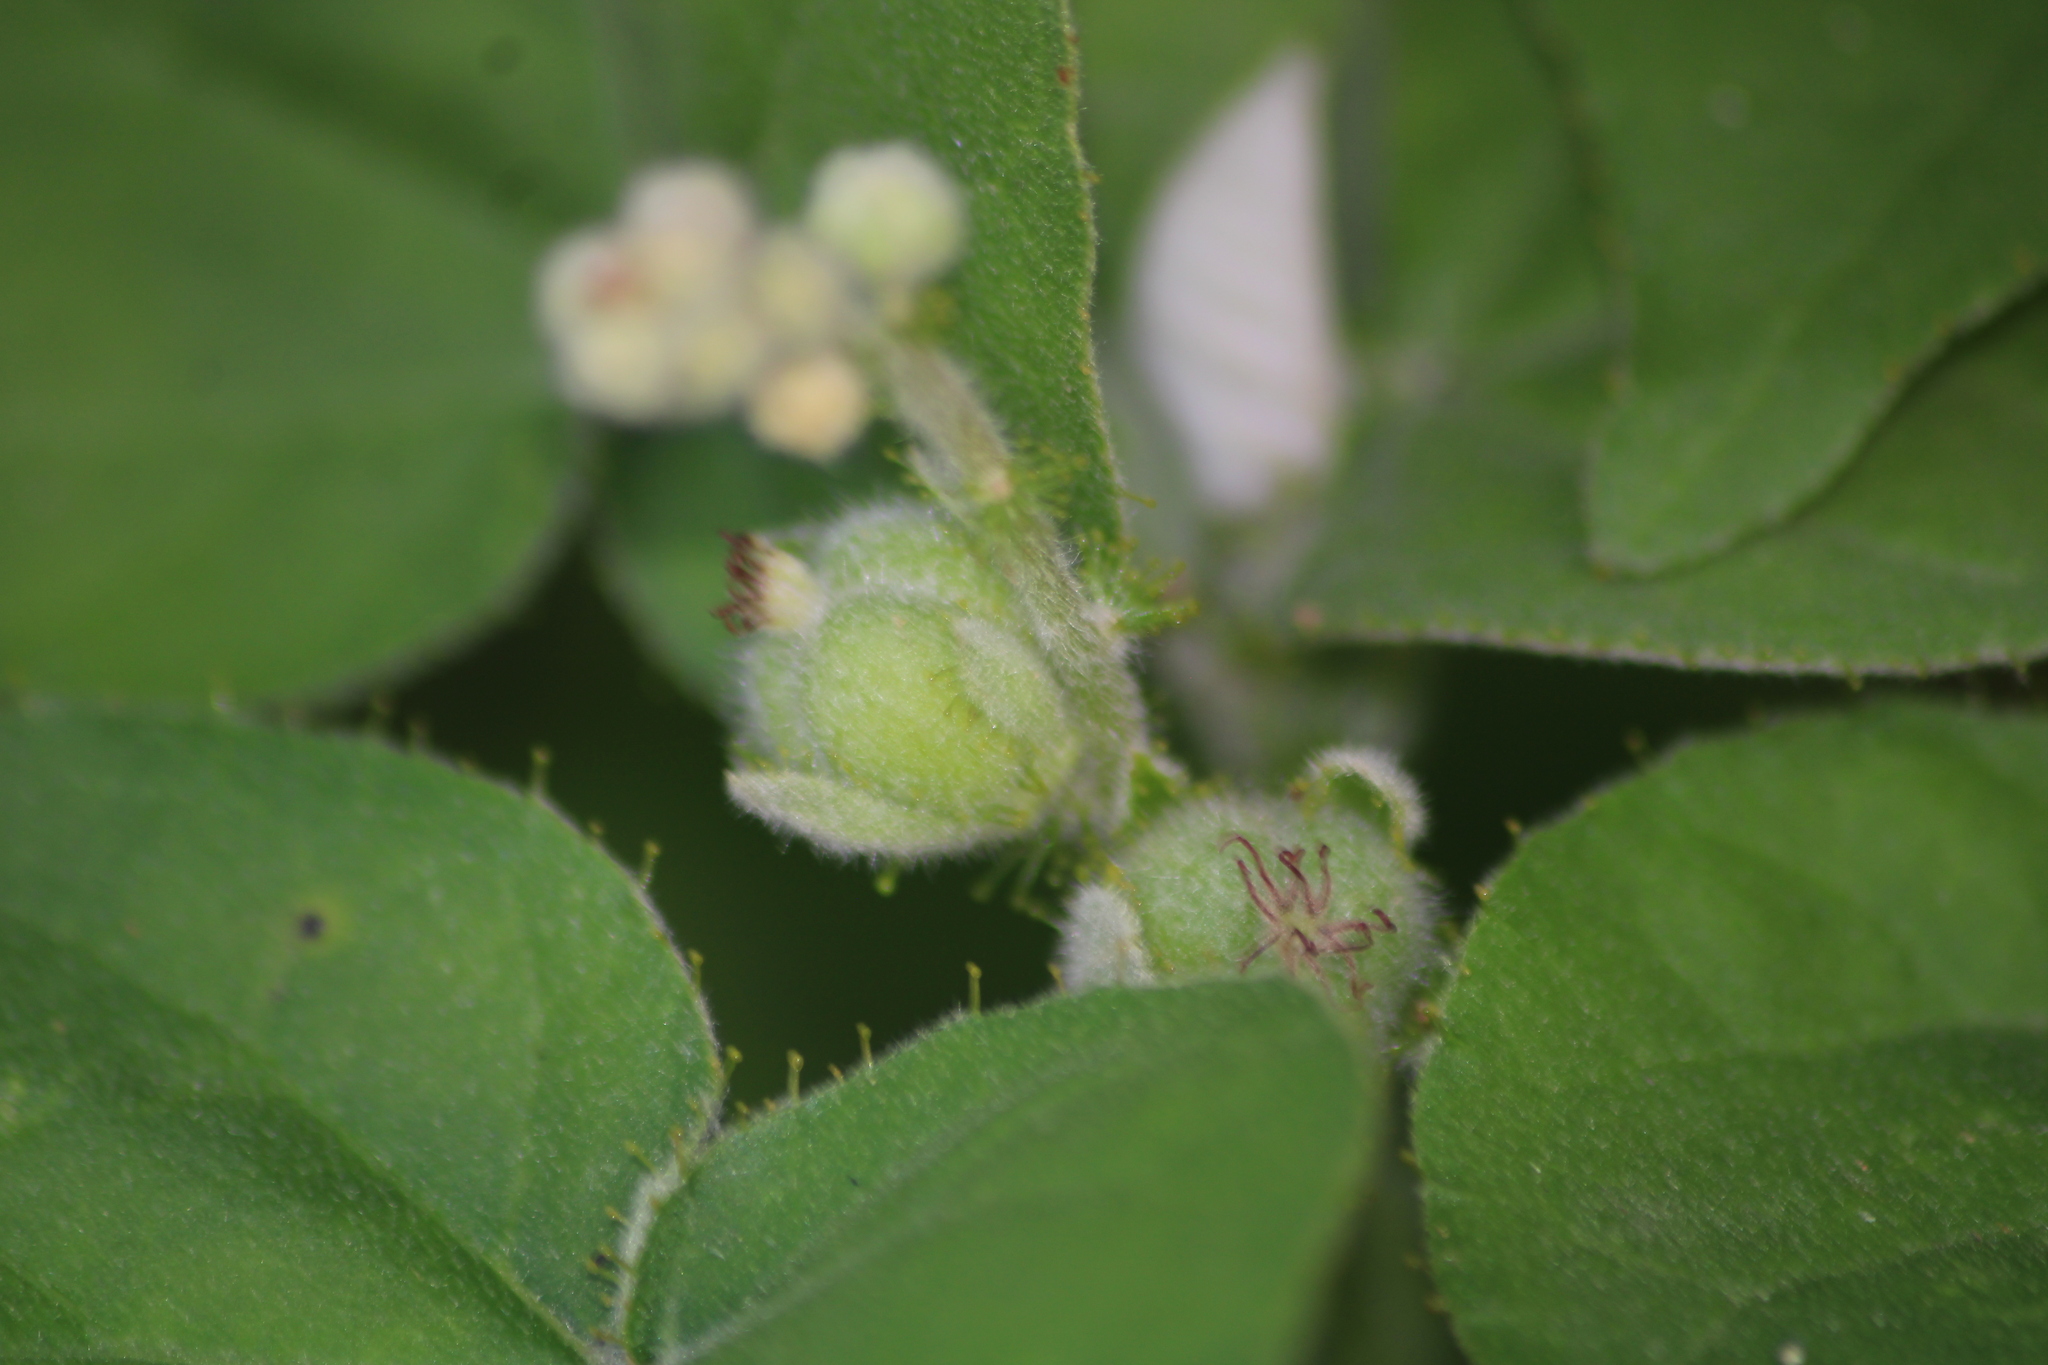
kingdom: Plantae
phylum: Tracheophyta
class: Magnoliopsida
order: Malpighiales
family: Euphorbiaceae
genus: Croton
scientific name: Croton ciliatoglandulifer
